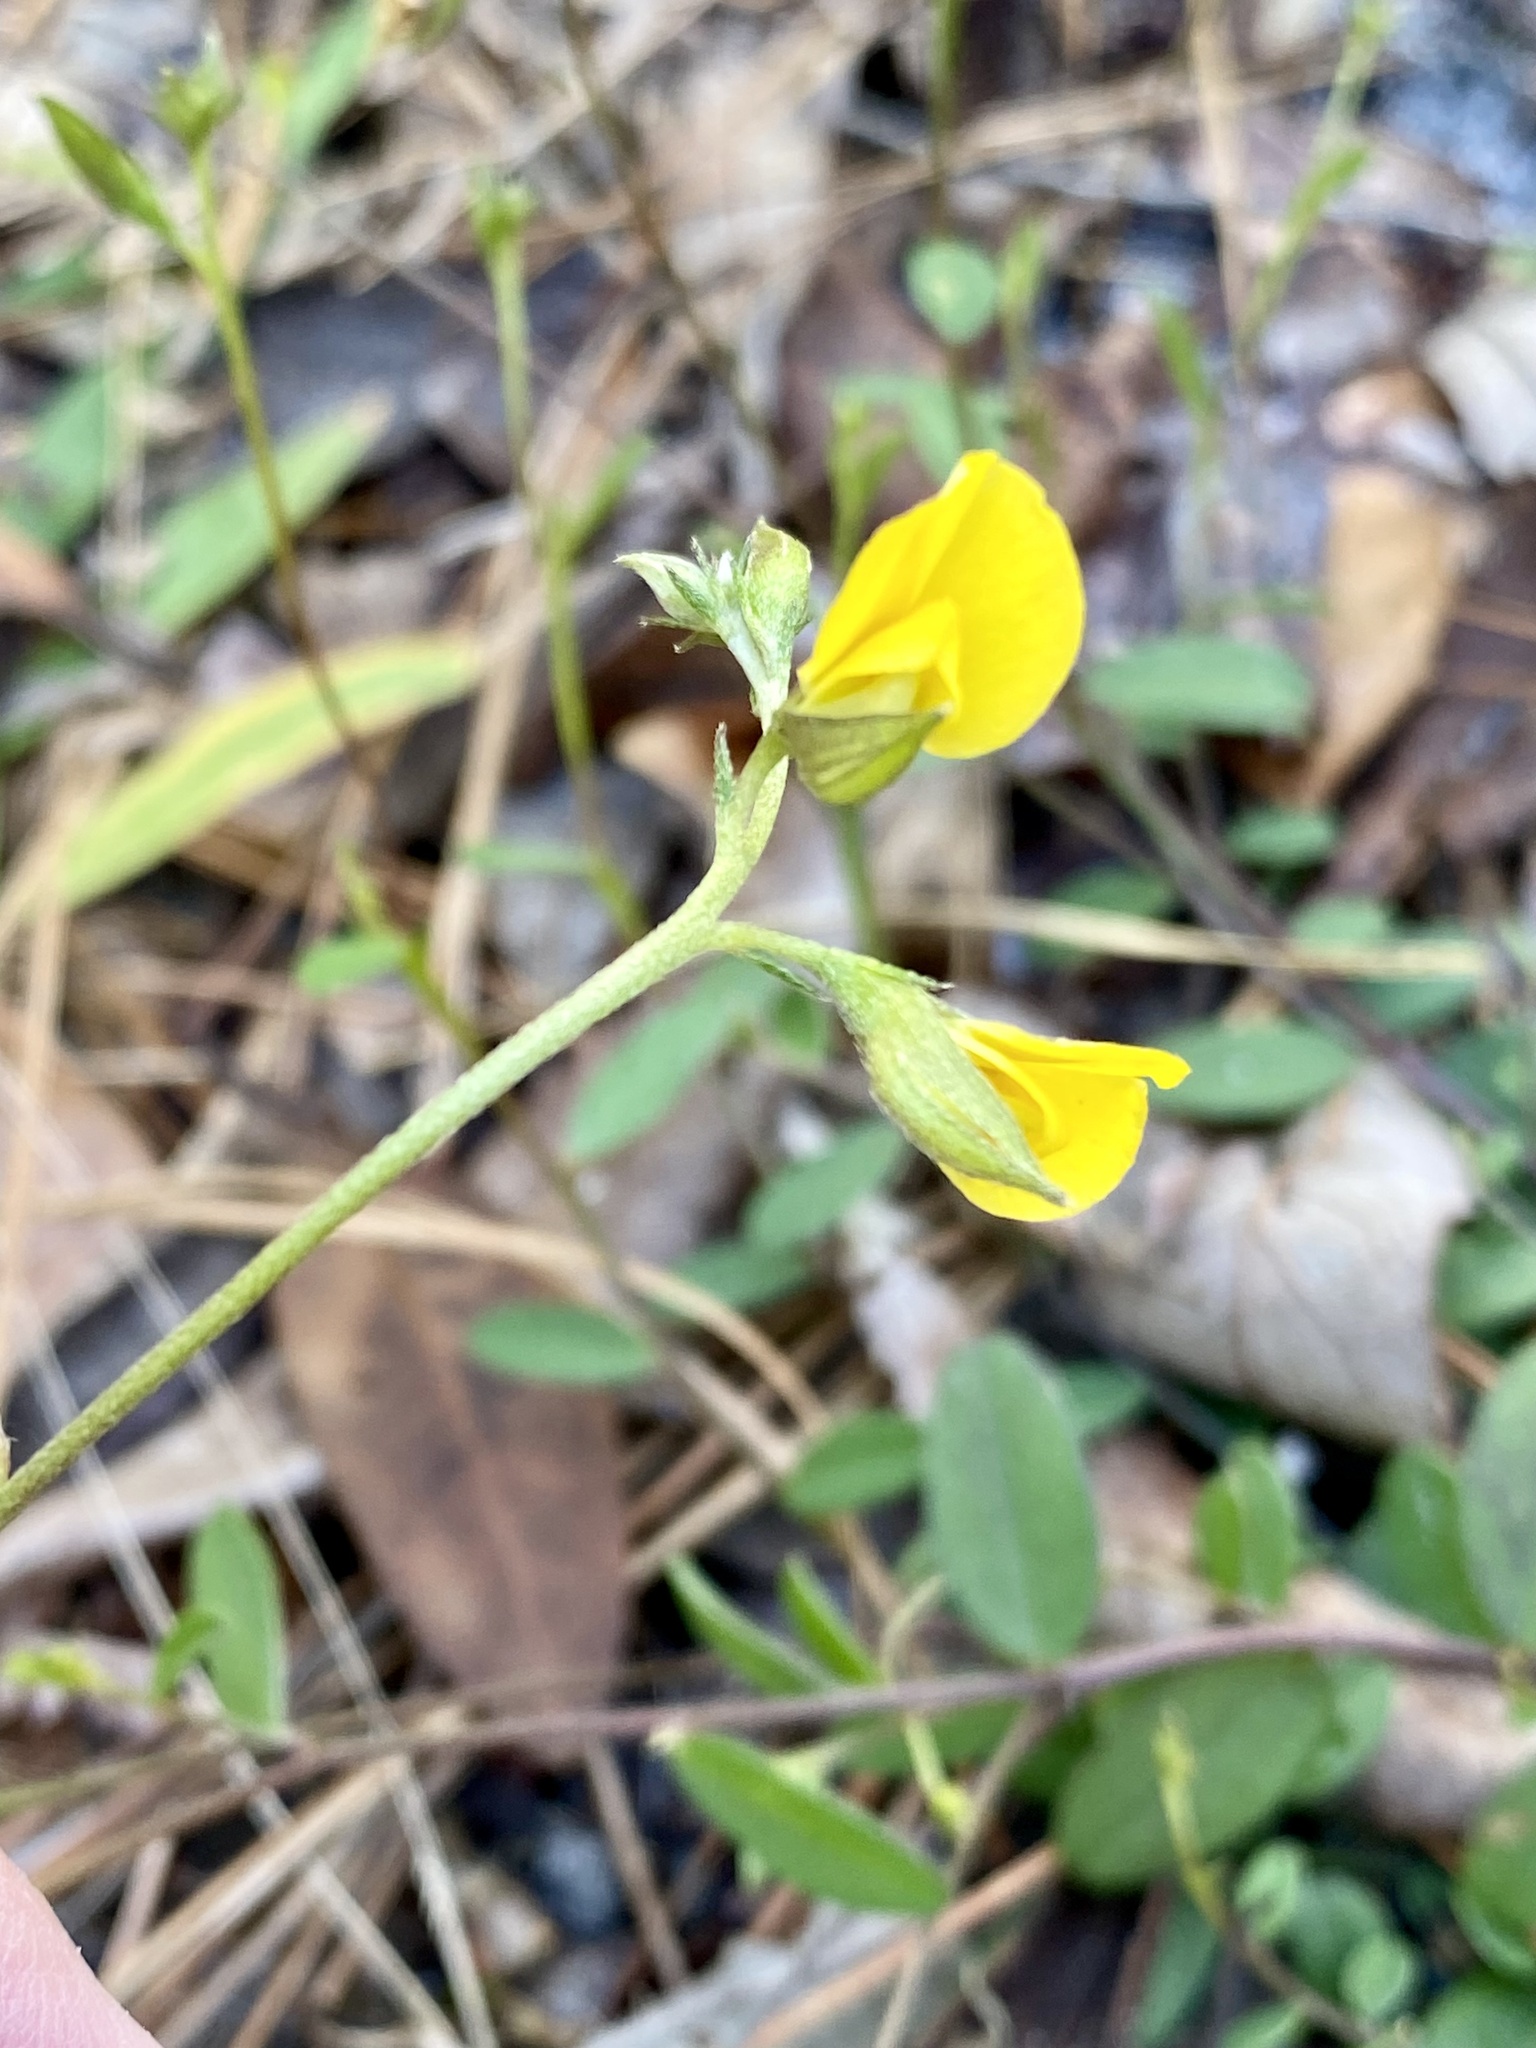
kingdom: Plantae
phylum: Tracheophyta
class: Magnoliopsida
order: Fabales
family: Fabaceae
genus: Crotalaria
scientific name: Crotalaria rotundifolia
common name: Prostrate rattlebox
